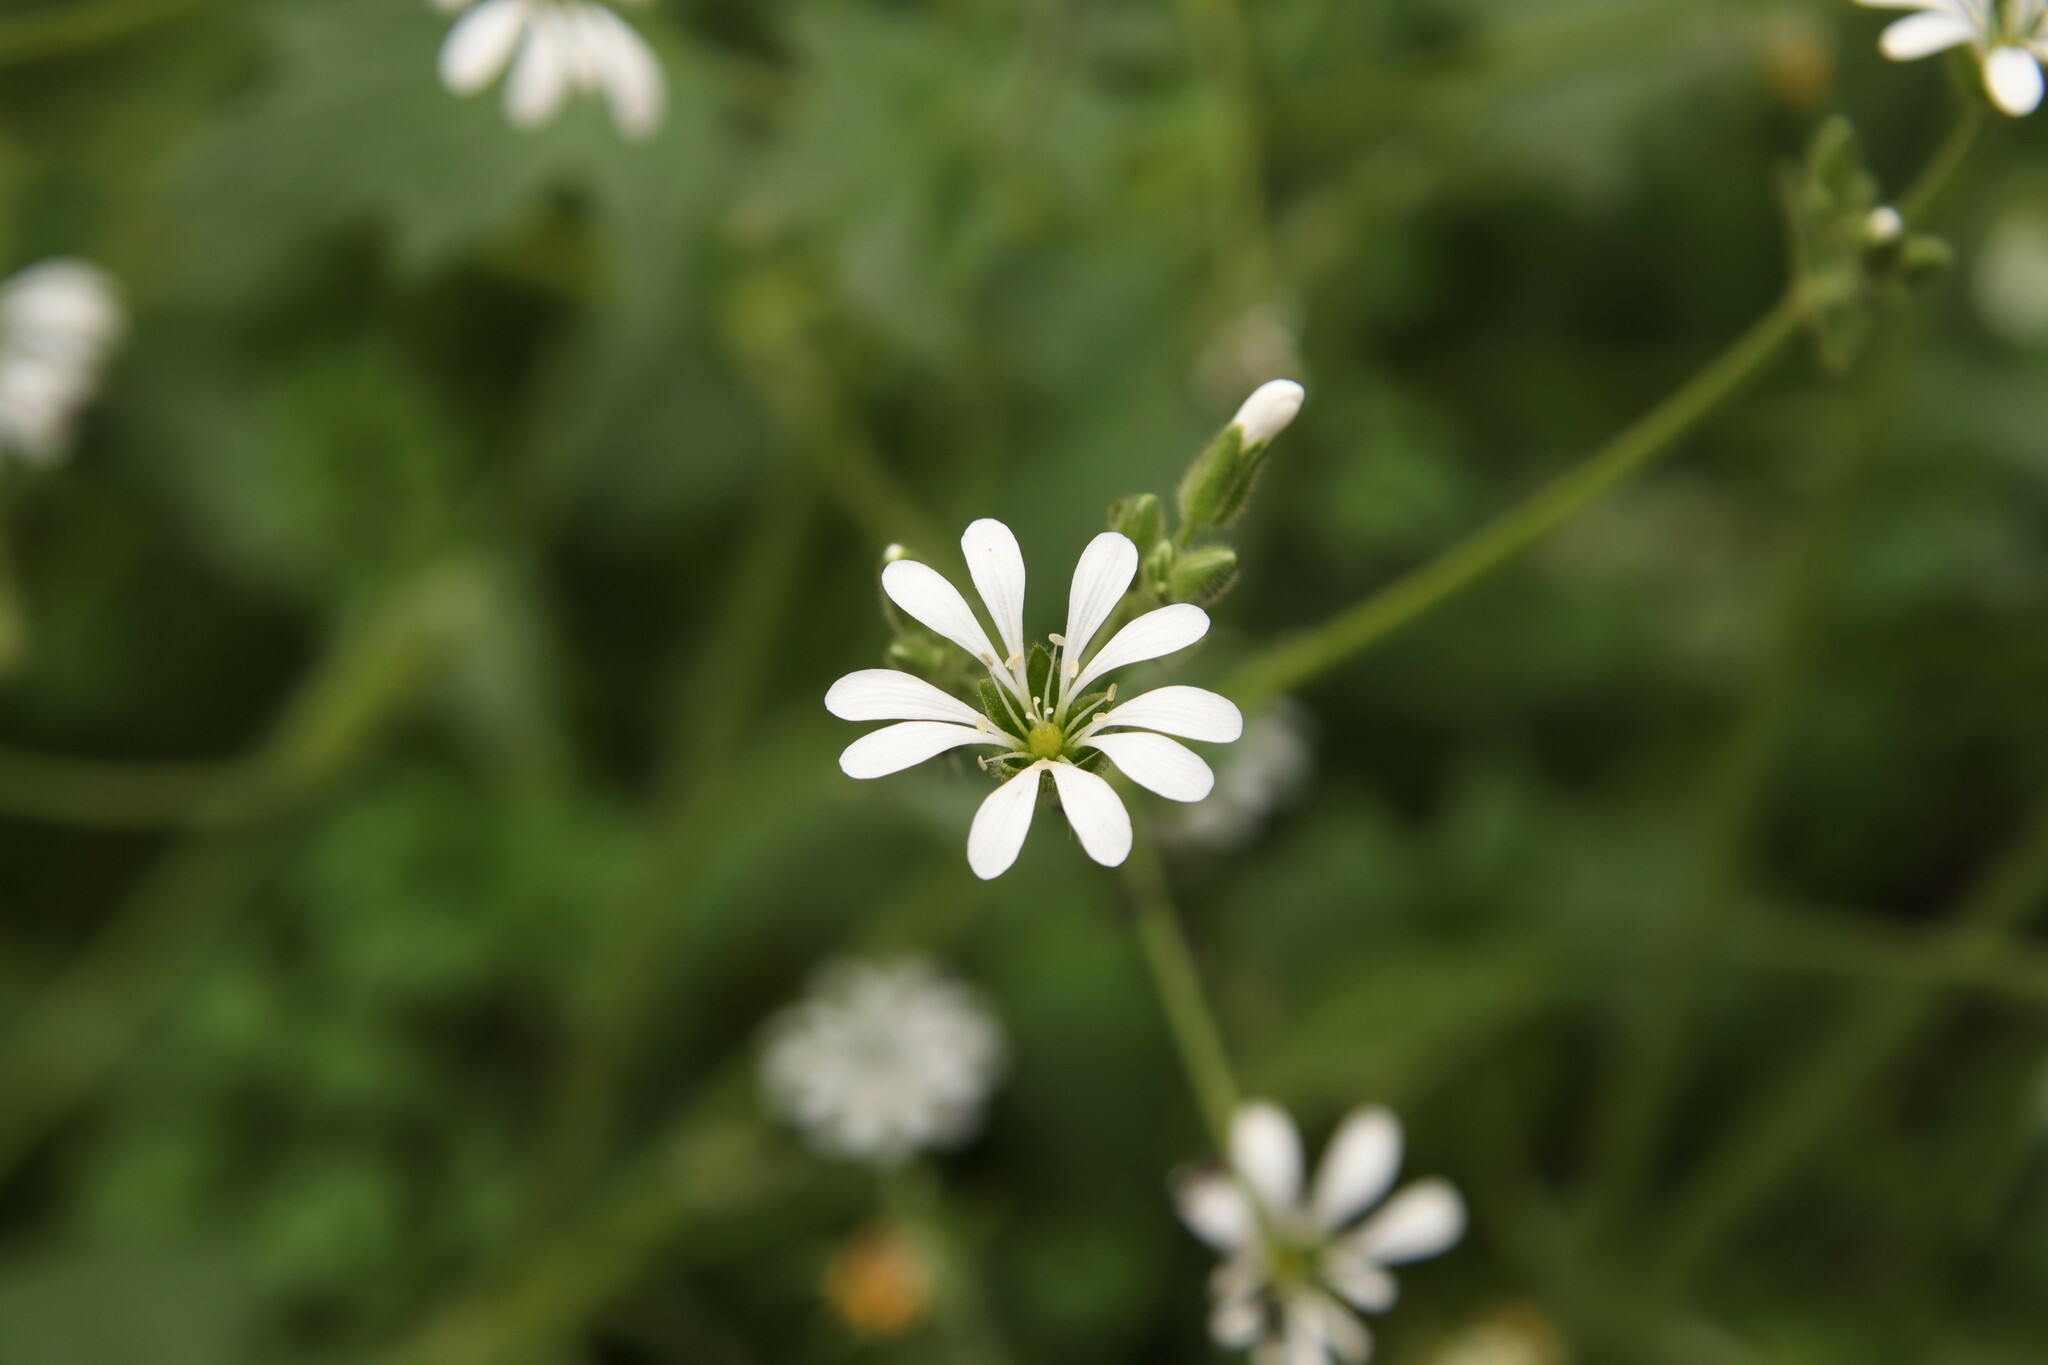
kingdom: Plantae
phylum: Tracheophyta
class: Magnoliopsida
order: Caryophyllales
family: Caryophyllaceae
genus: Stellaria
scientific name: Stellaria chilensis
